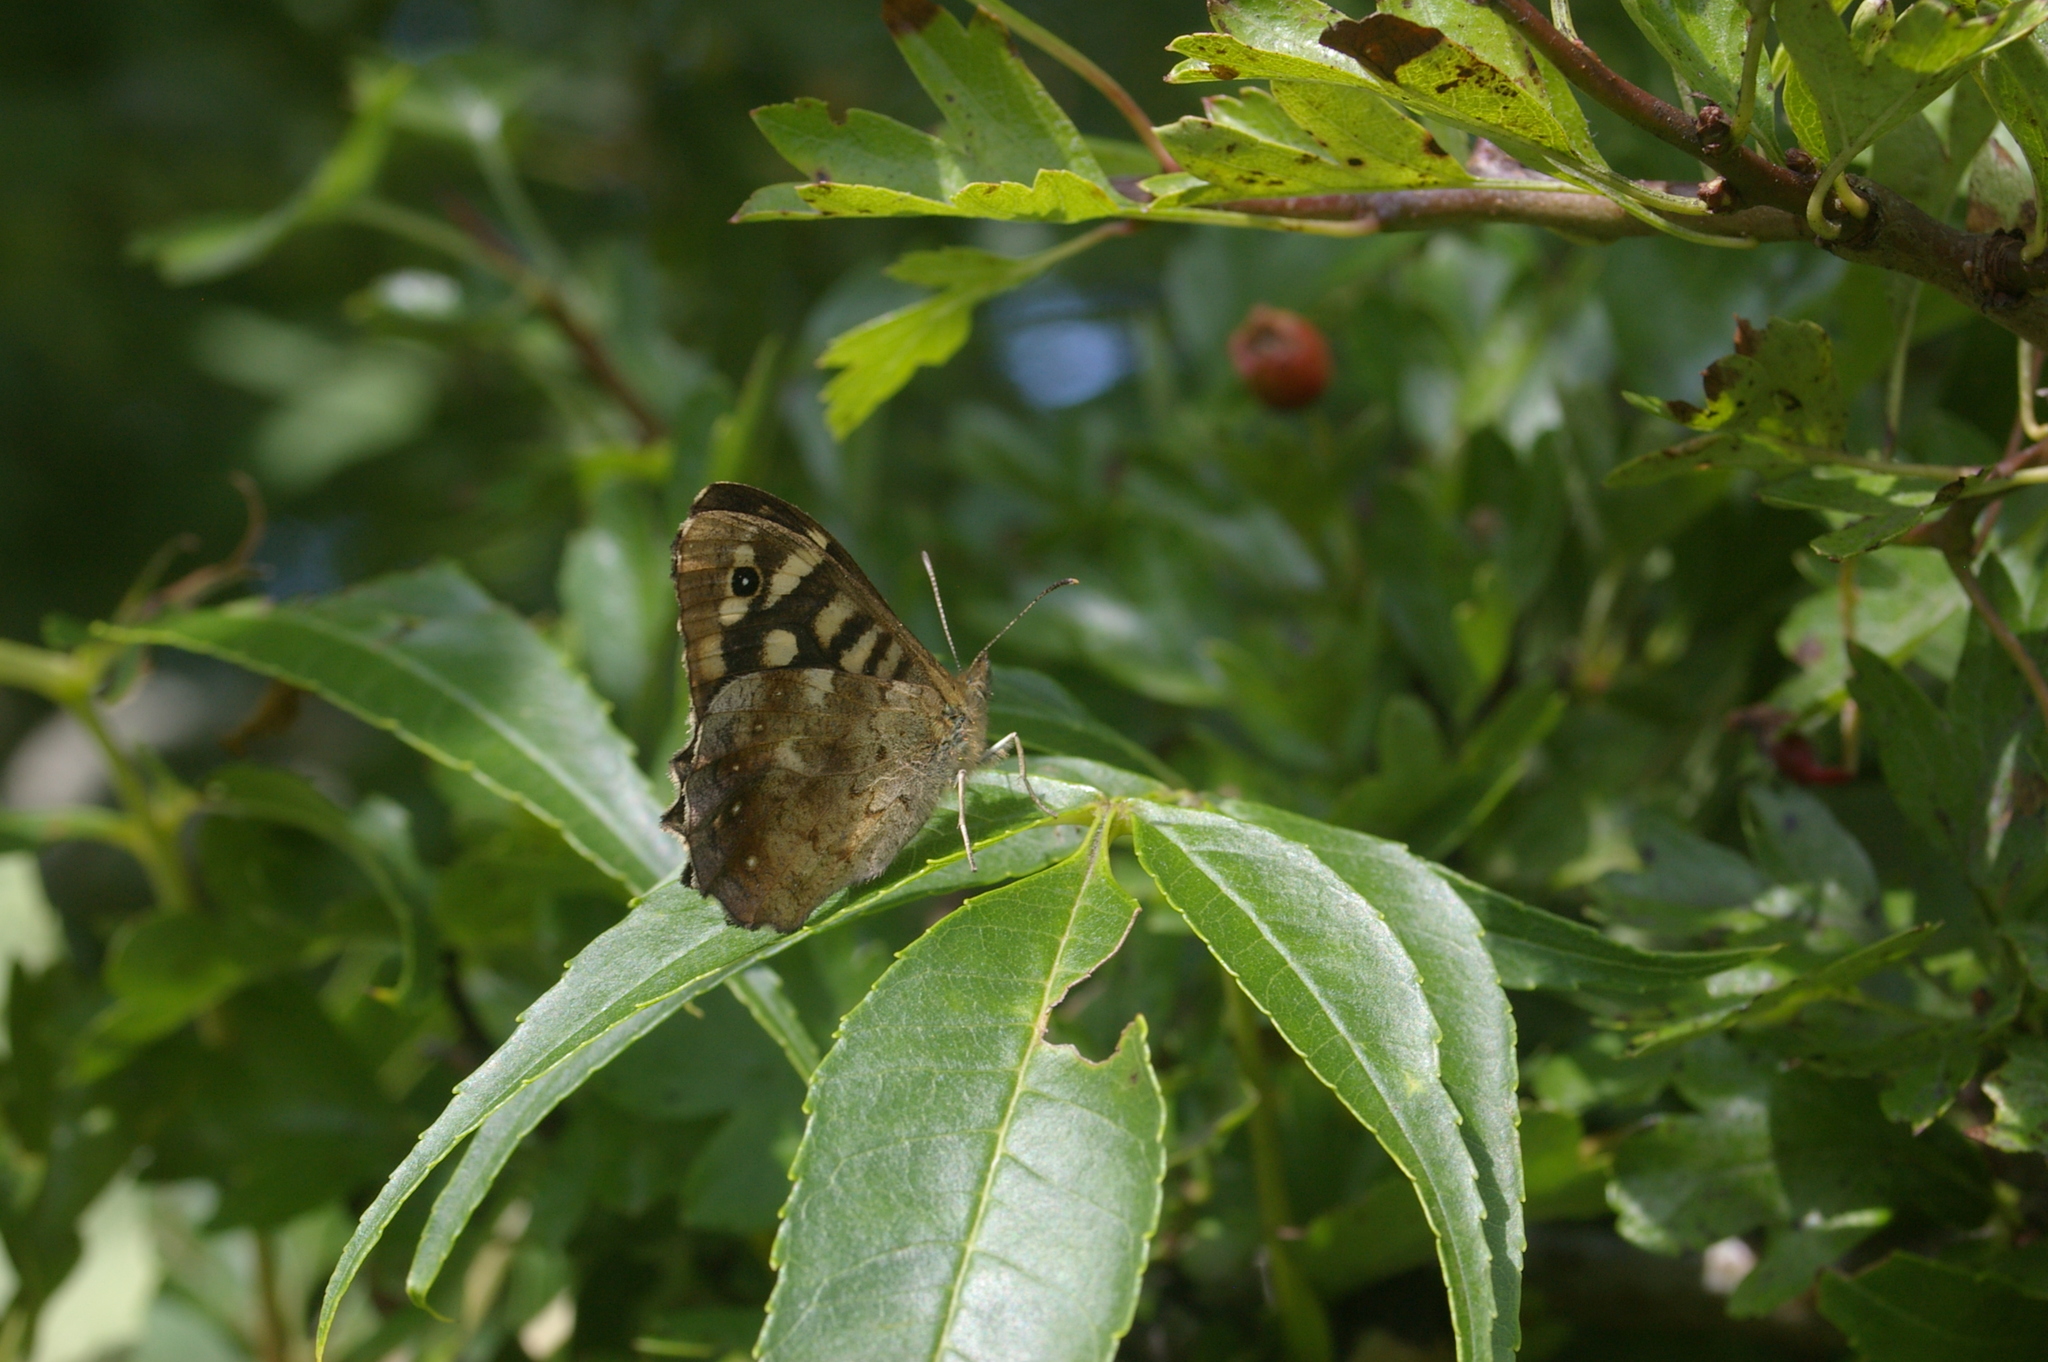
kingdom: Animalia
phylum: Arthropoda
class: Insecta
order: Lepidoptera
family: Nymphalidae
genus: Pararge
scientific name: Pararge aegeria
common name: Speckled wood
